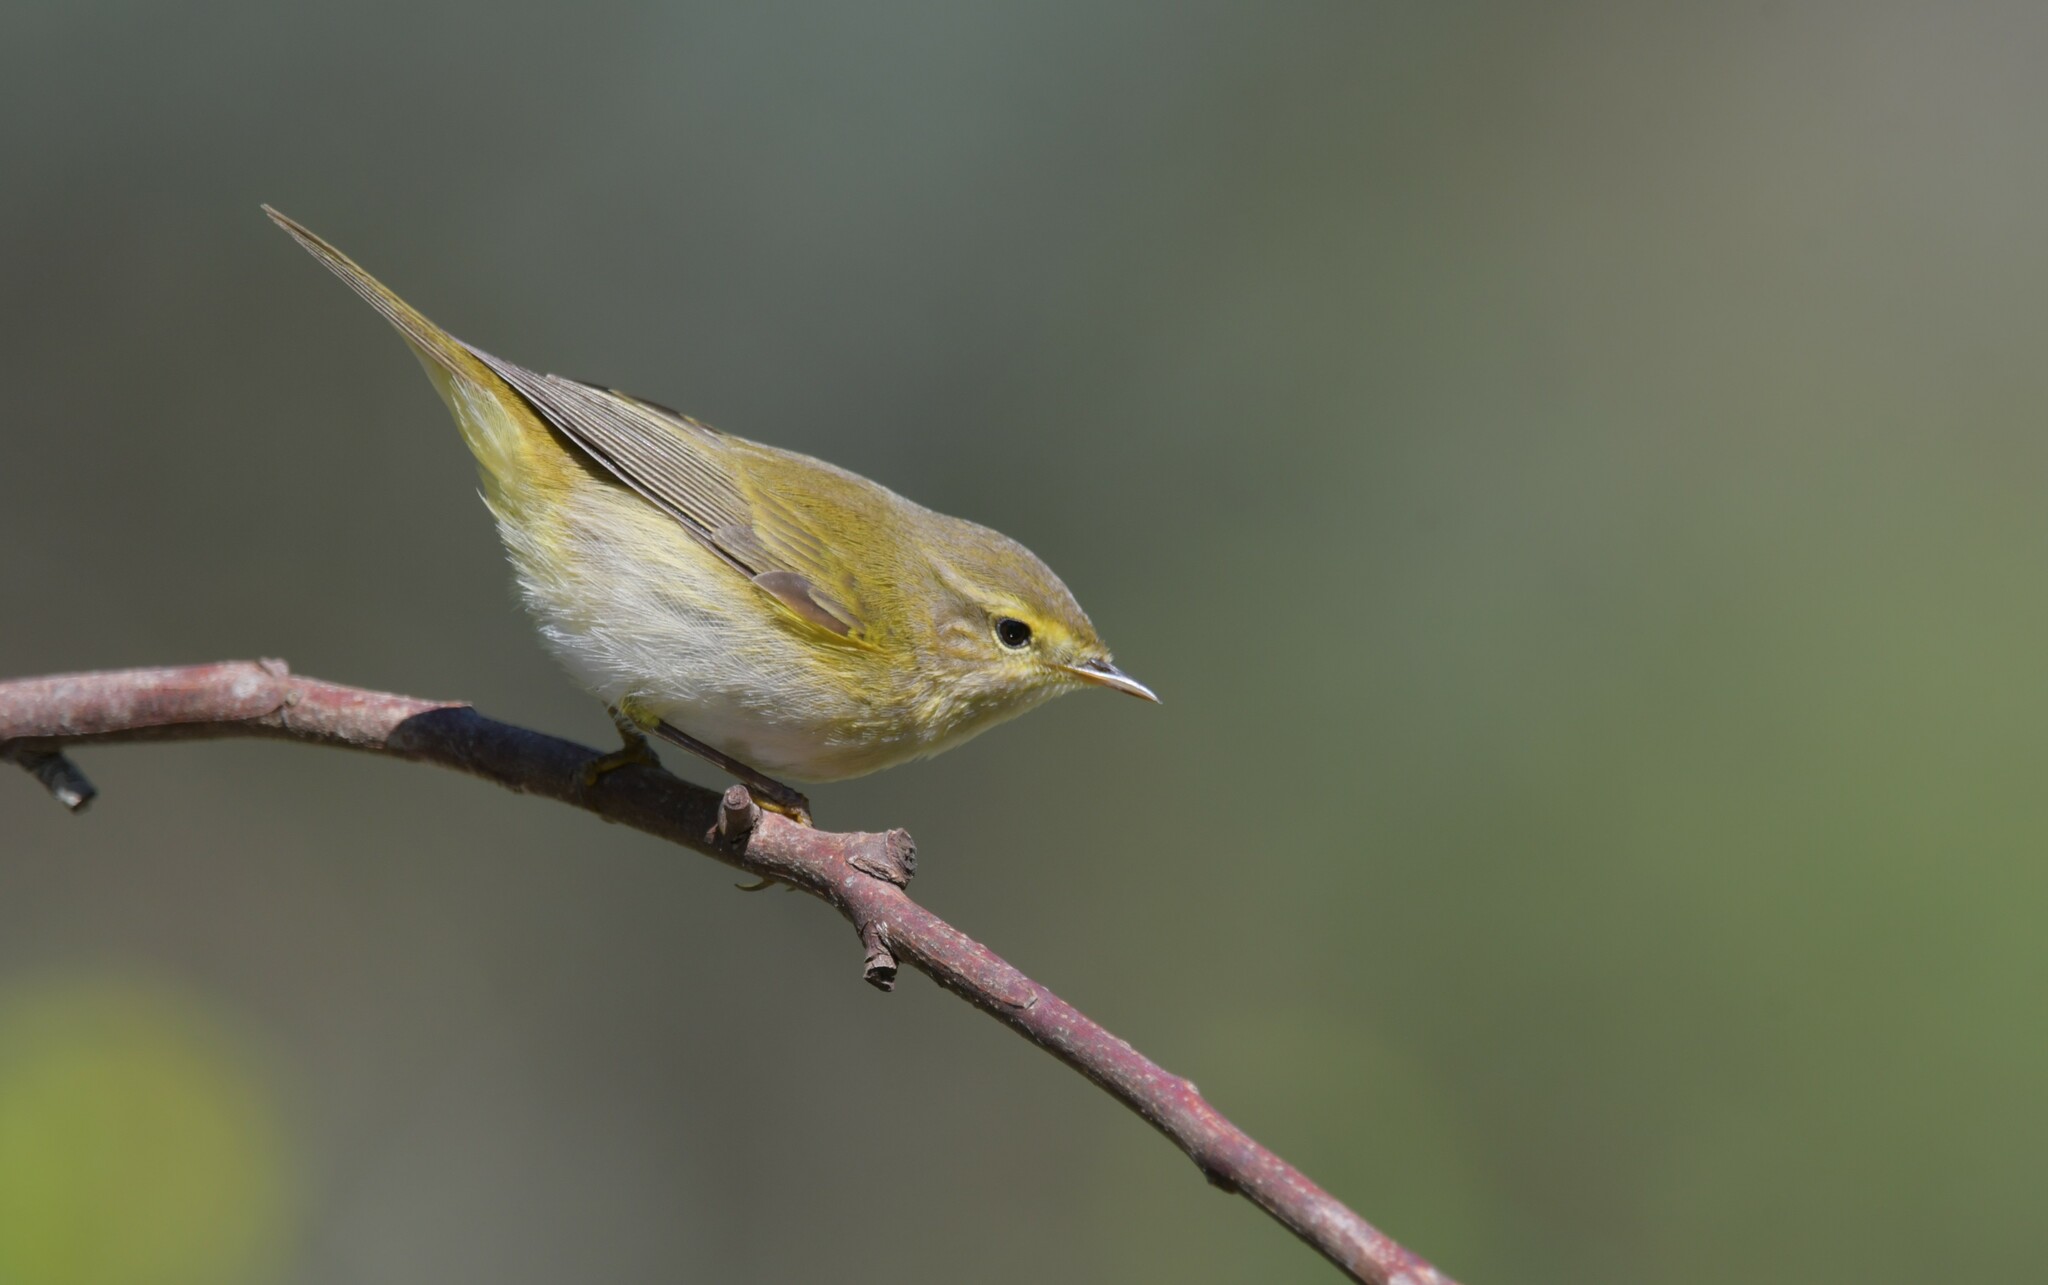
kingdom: Animalia
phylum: Chordata
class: Aves
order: Passeriformes
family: Phylloscopidae
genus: Phylloscopus
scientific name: Phylloscopus ibericus
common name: Iberian chiffchaff
